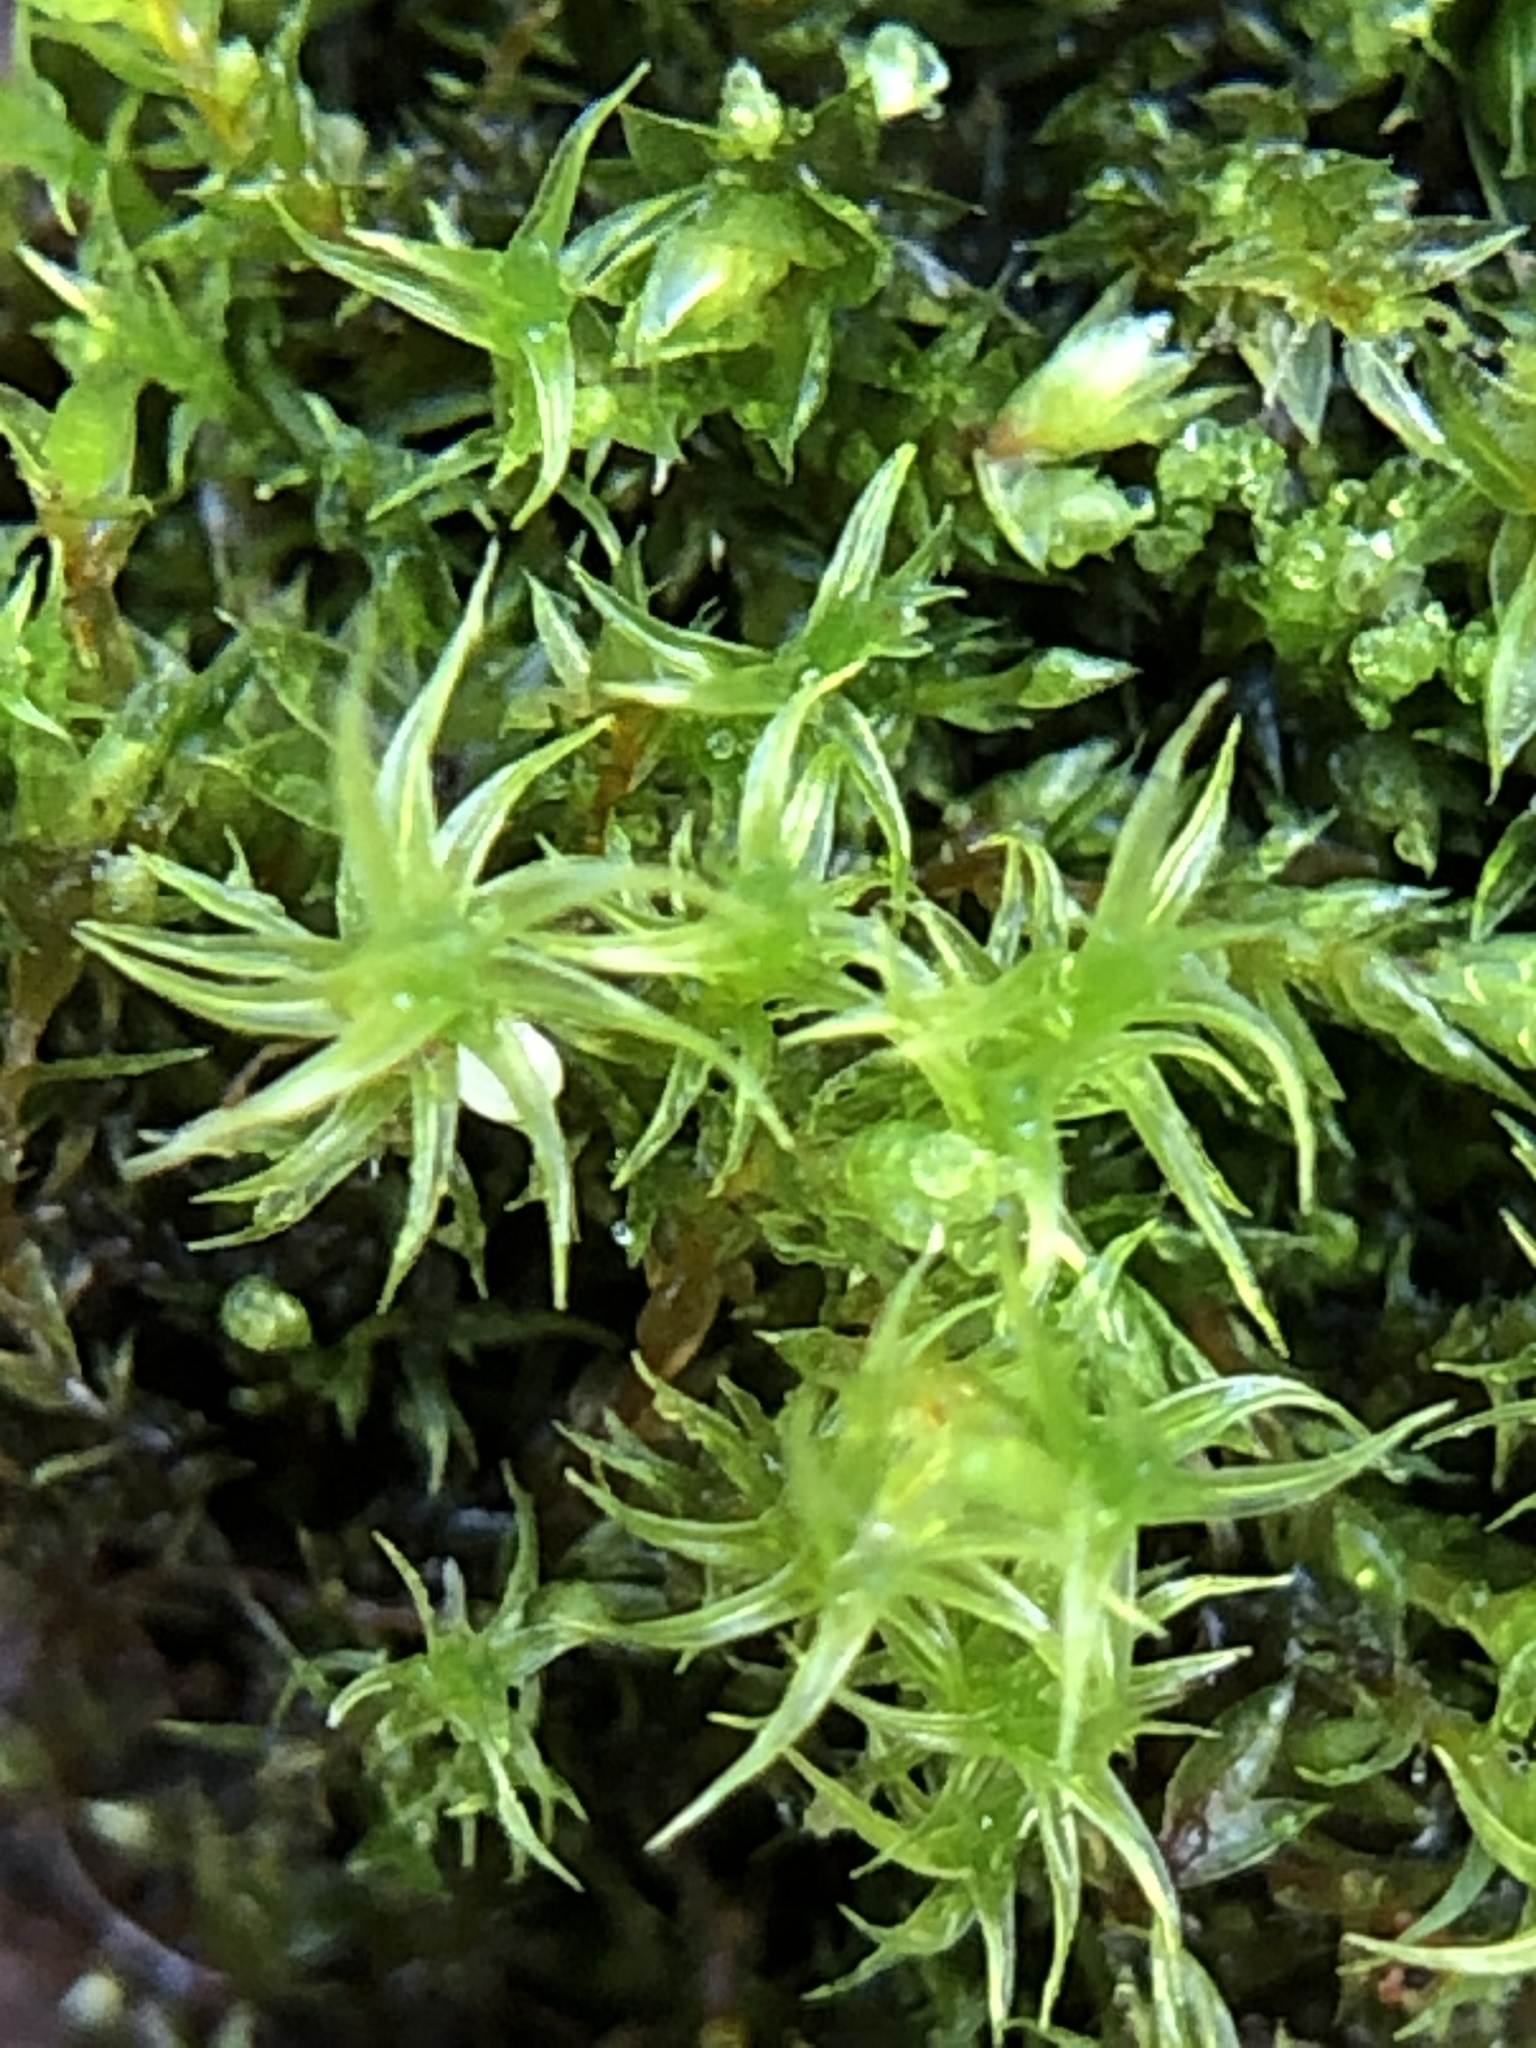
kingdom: Plantae
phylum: Bryophyta
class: Bryopsida
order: Pottiales
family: Pottiaceae
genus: Vinealobryum
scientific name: Vinealobryum insulanum
